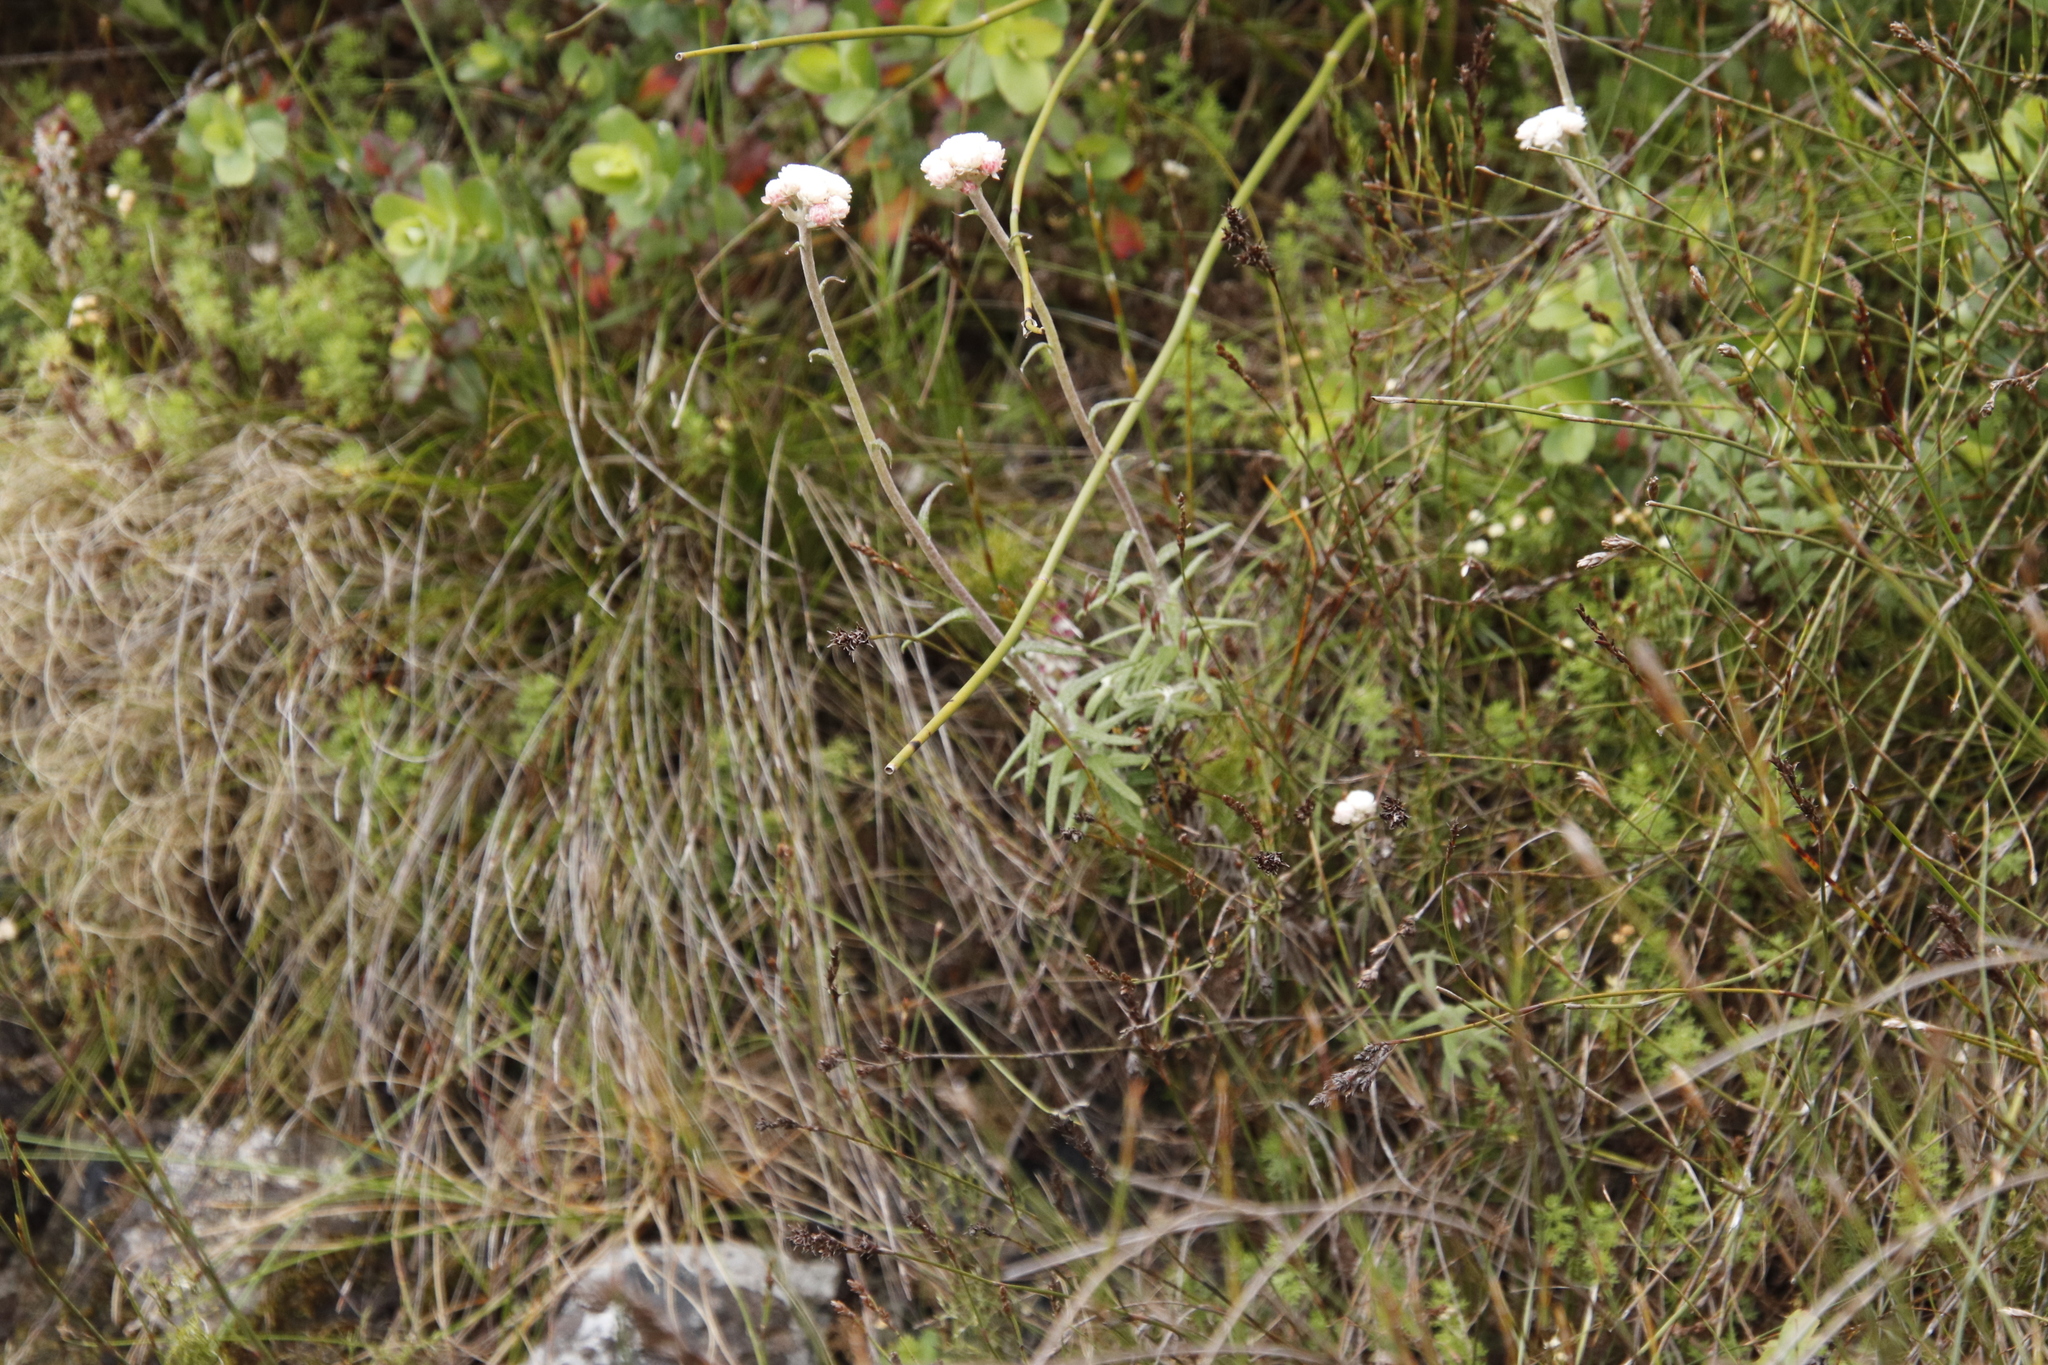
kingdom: Plantae
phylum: Tracheophyta
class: Magnoliopsida
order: Asterales
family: Asteraceae
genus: Helichrysum
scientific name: Helichrysum felinum
